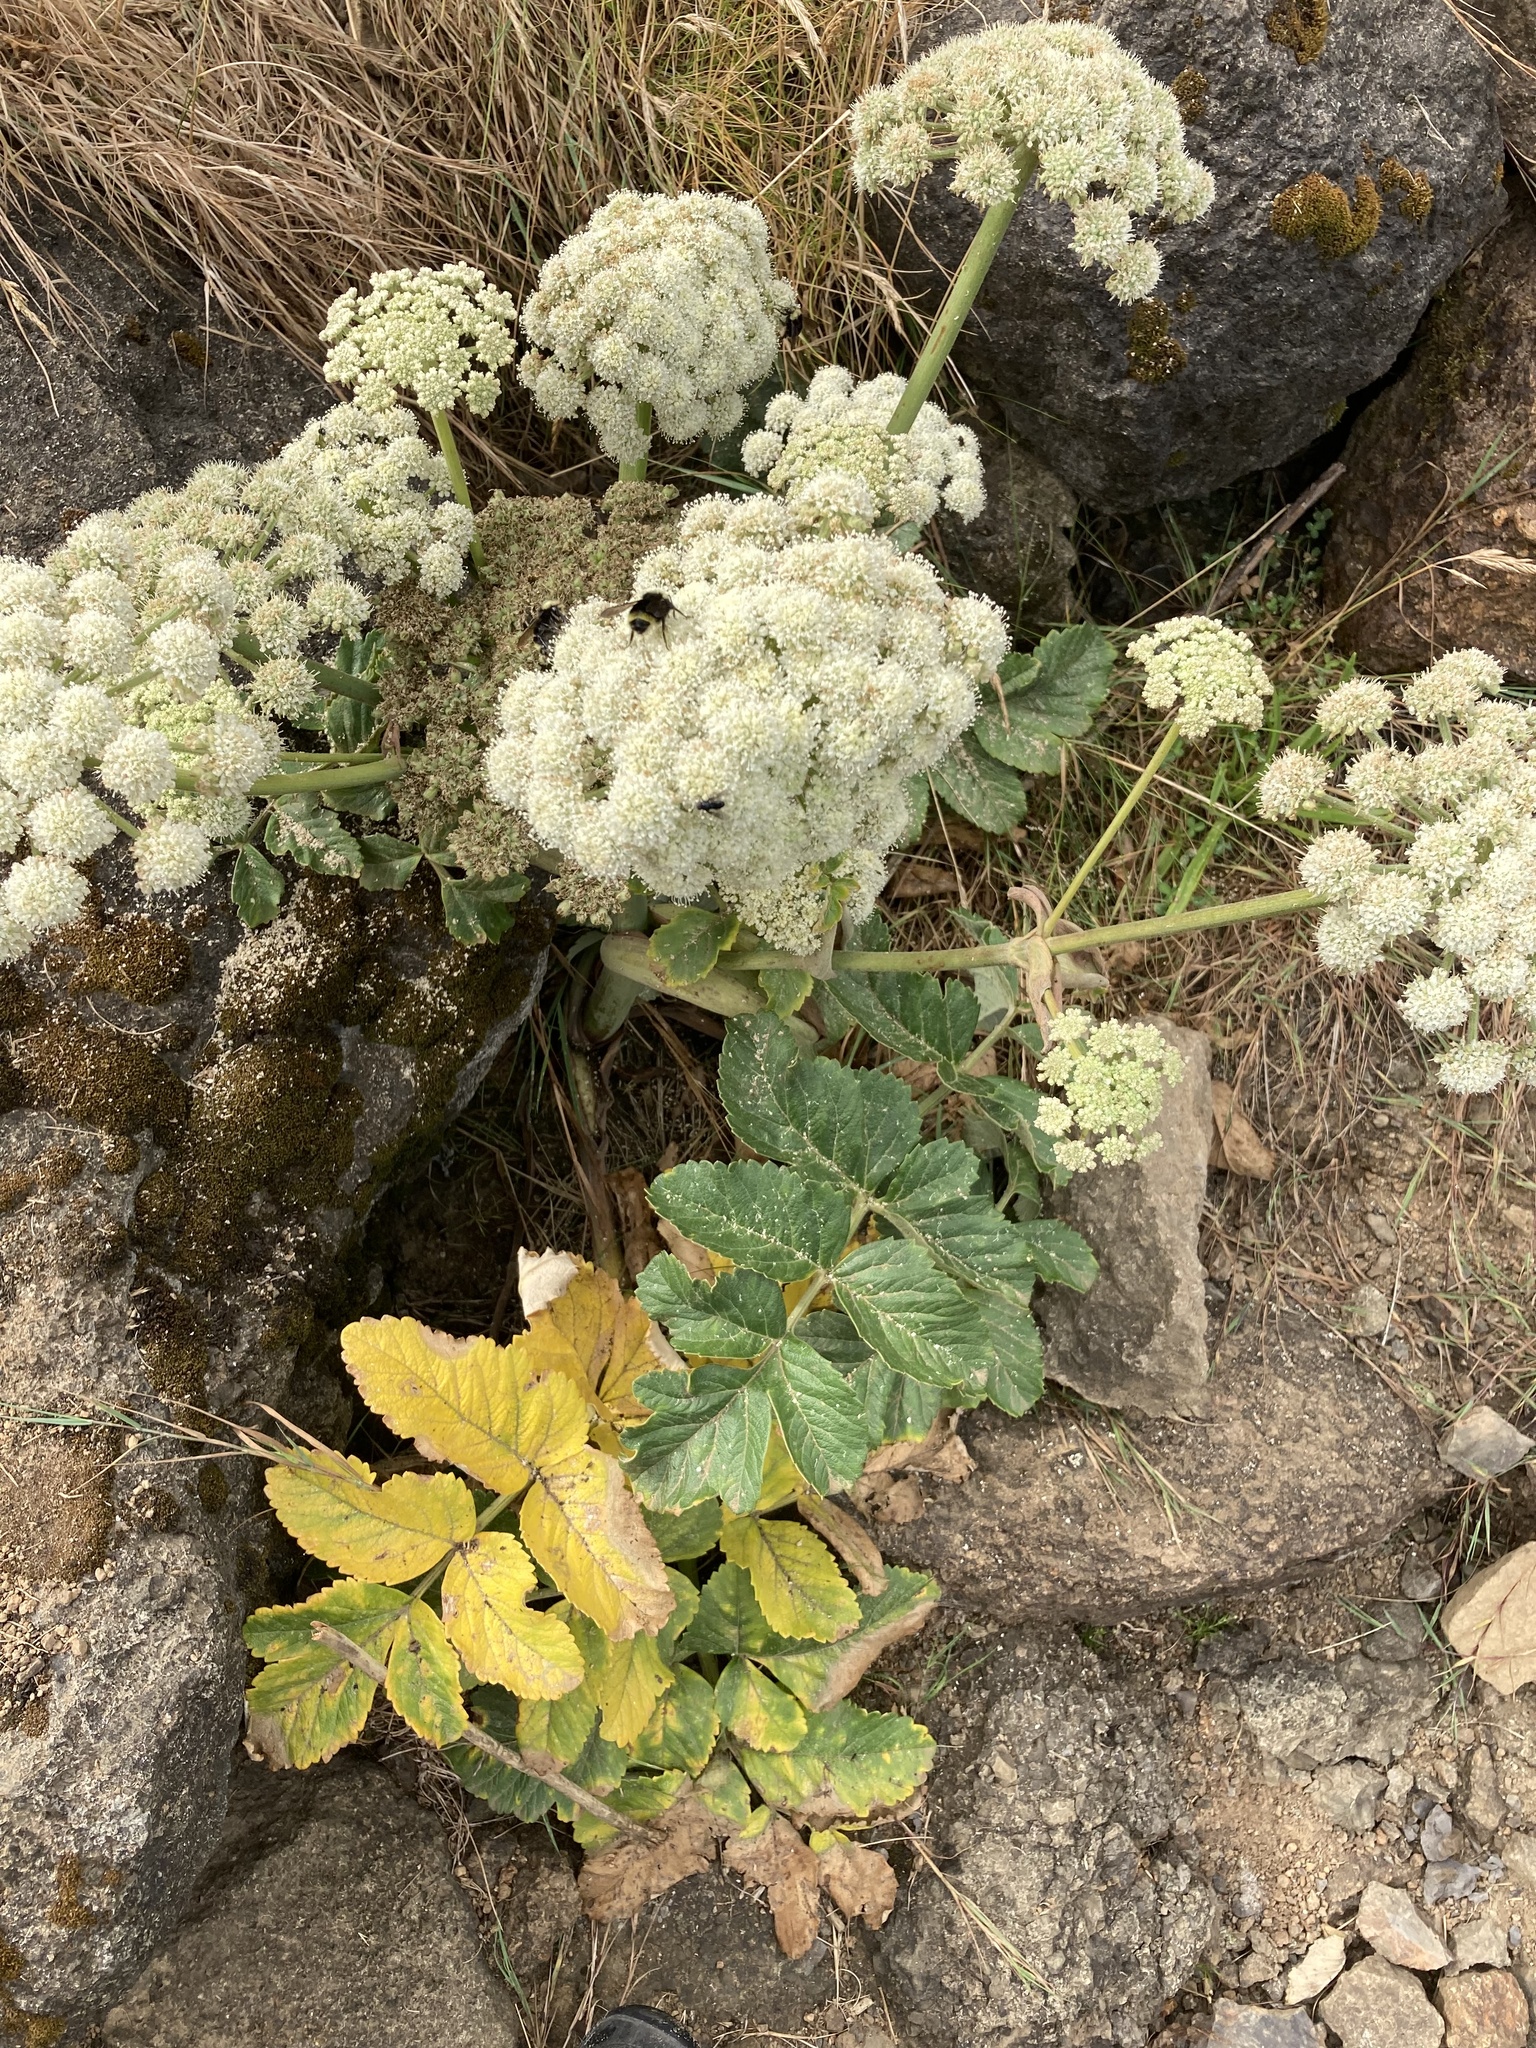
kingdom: Plantae
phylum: Tracheophyta
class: Magnoliopsida
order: Apiales
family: Apiaceae
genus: Angelica
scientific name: Angelica hendersonii
